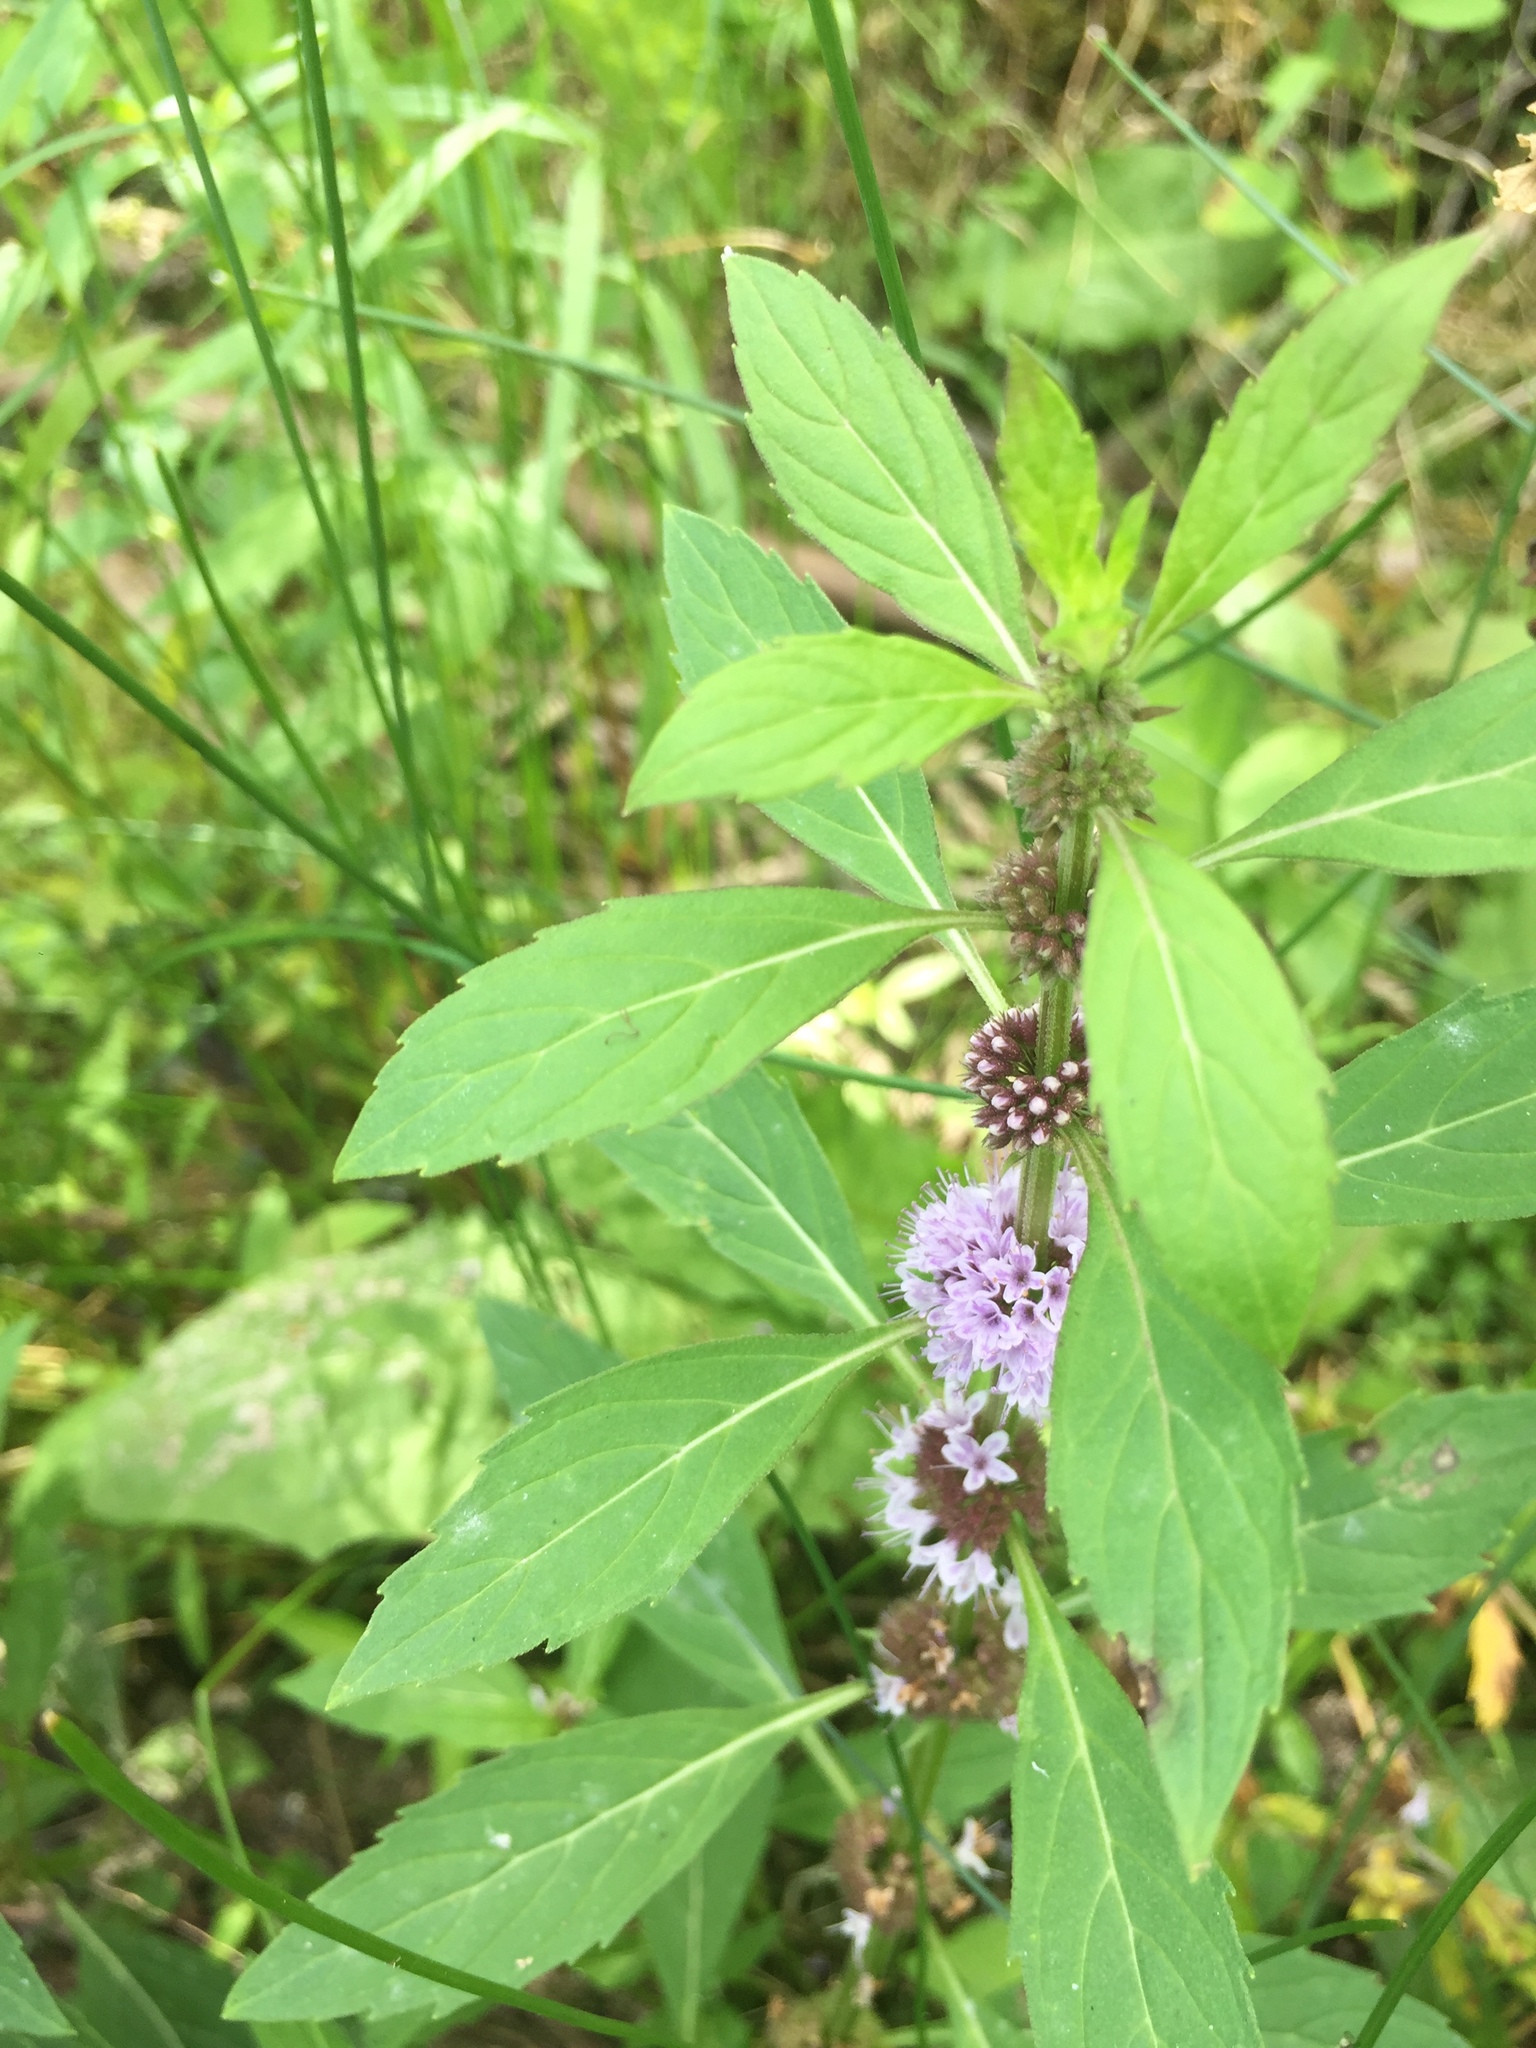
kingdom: Plantae
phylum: Tracheophyta
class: Magnoliopsida
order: Lamiales
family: Lamiaceae
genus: Mentha
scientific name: Mentha canadensis
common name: American corn mint
